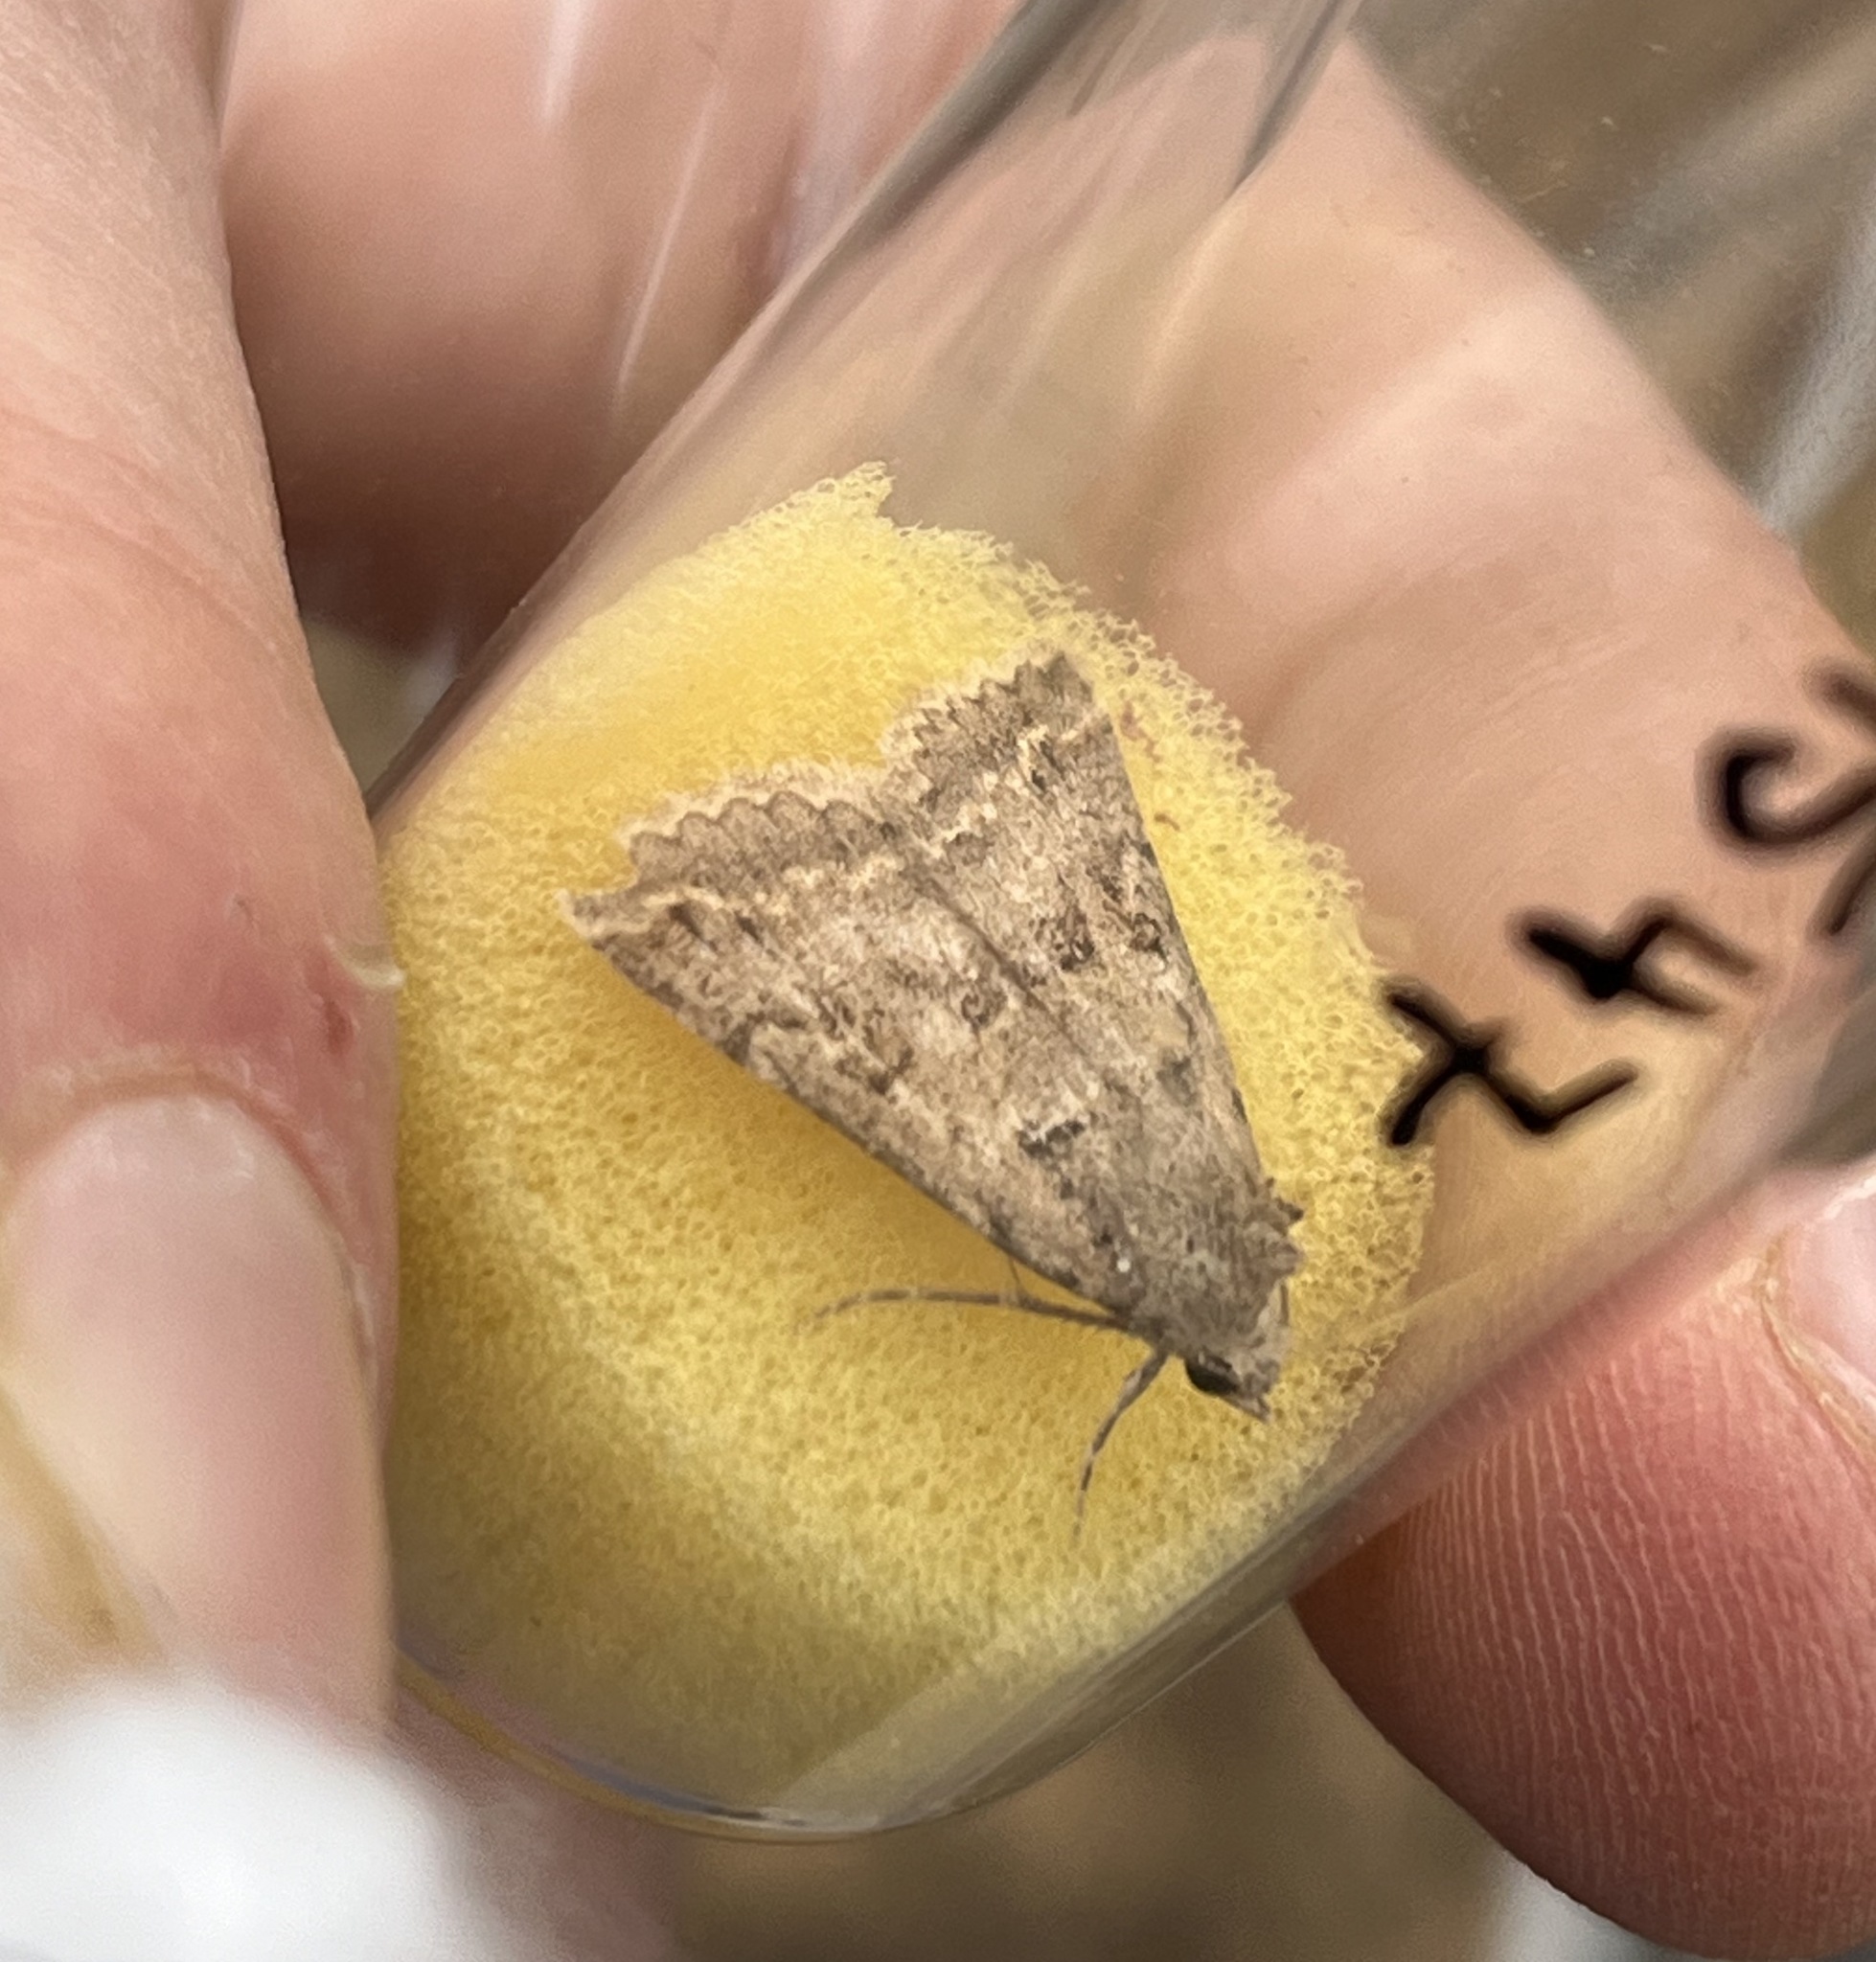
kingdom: Animalia
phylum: Arthropoda
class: Insecta
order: Lepidoptera
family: Erebidae
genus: Pandesma
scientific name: Pandesma robusta
